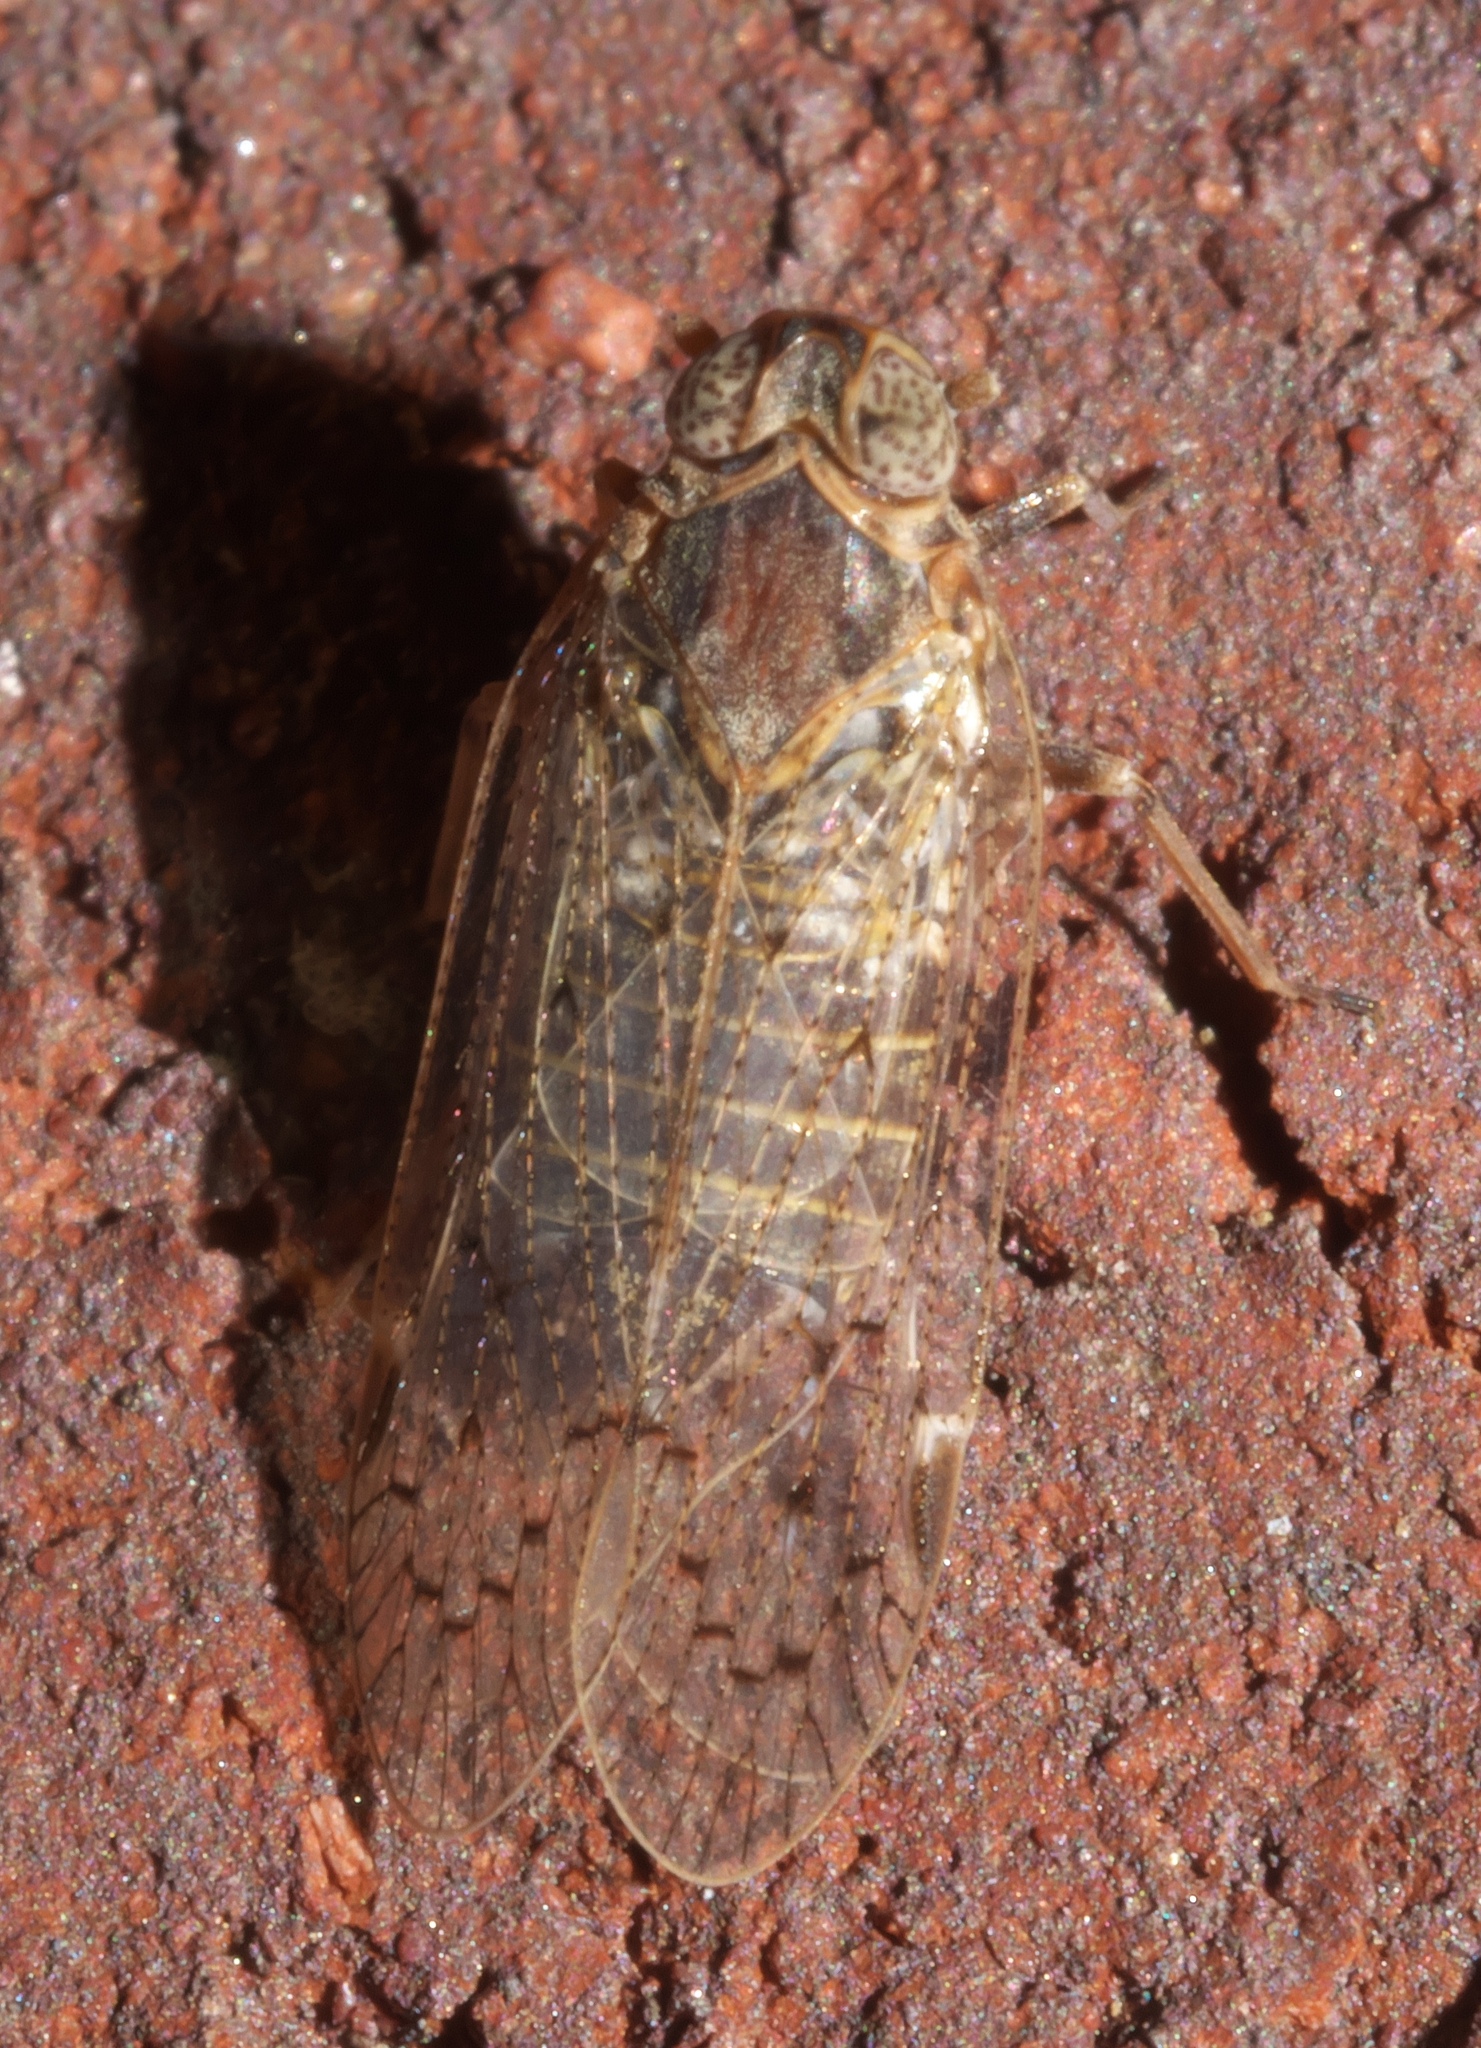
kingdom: Animalia
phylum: Arthropoda
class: Insecta
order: Hemiptera
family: Cixiidae
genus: Melanoliarus
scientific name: Melanoliarus aridus
